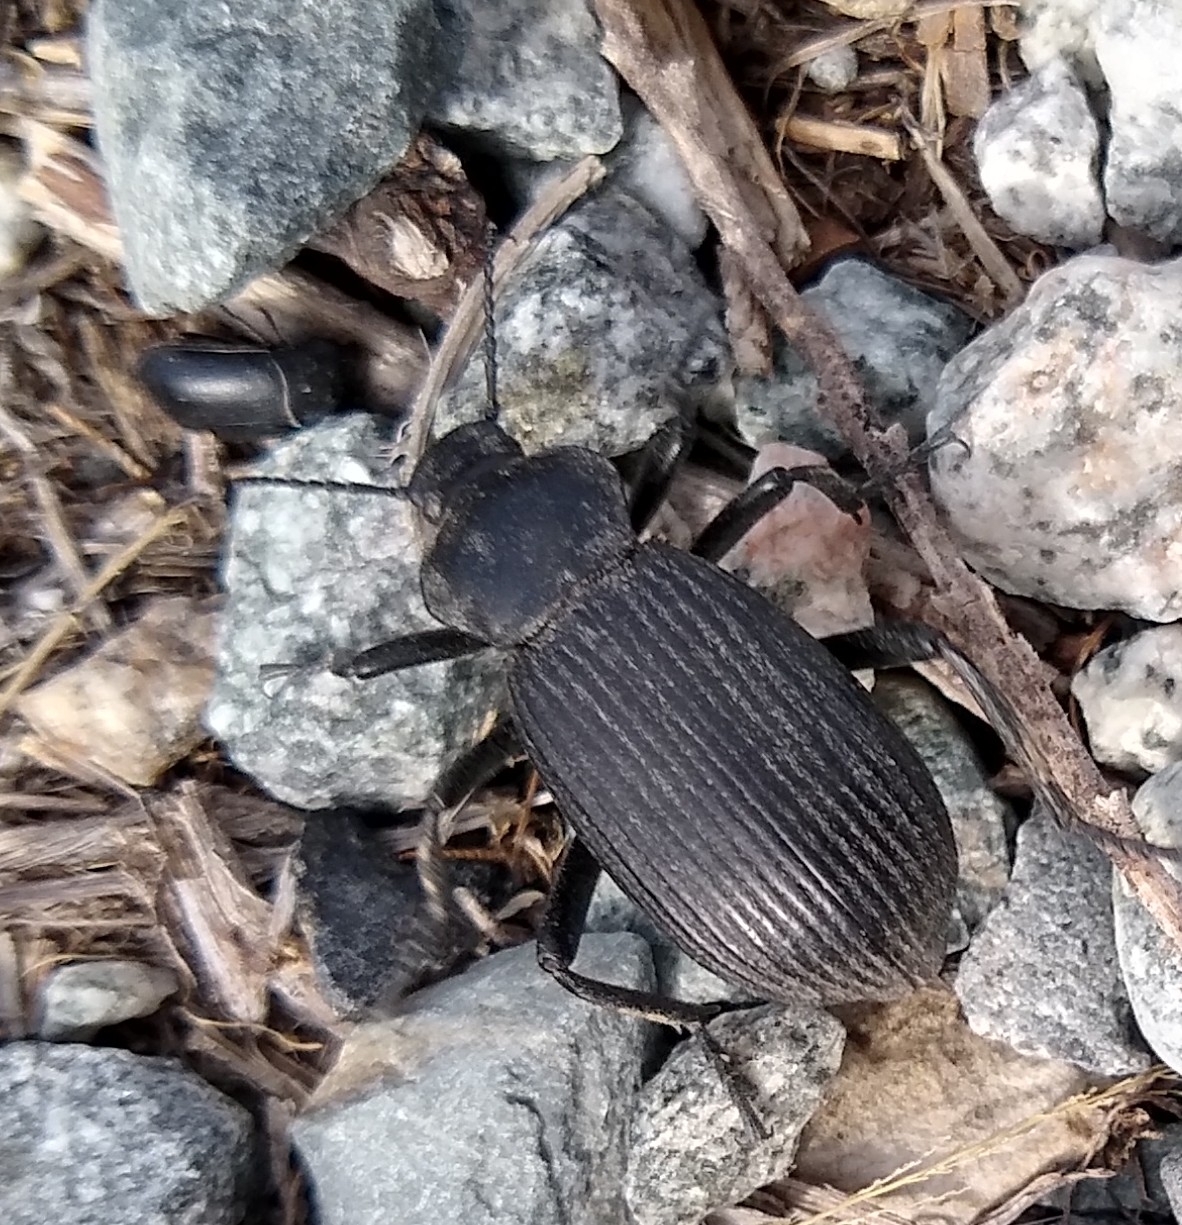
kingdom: Animalia
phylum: Arthropoda
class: Insecta
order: Coleoptera
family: Tenebrionidae
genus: Eleodes
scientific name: Eleodes obscura
